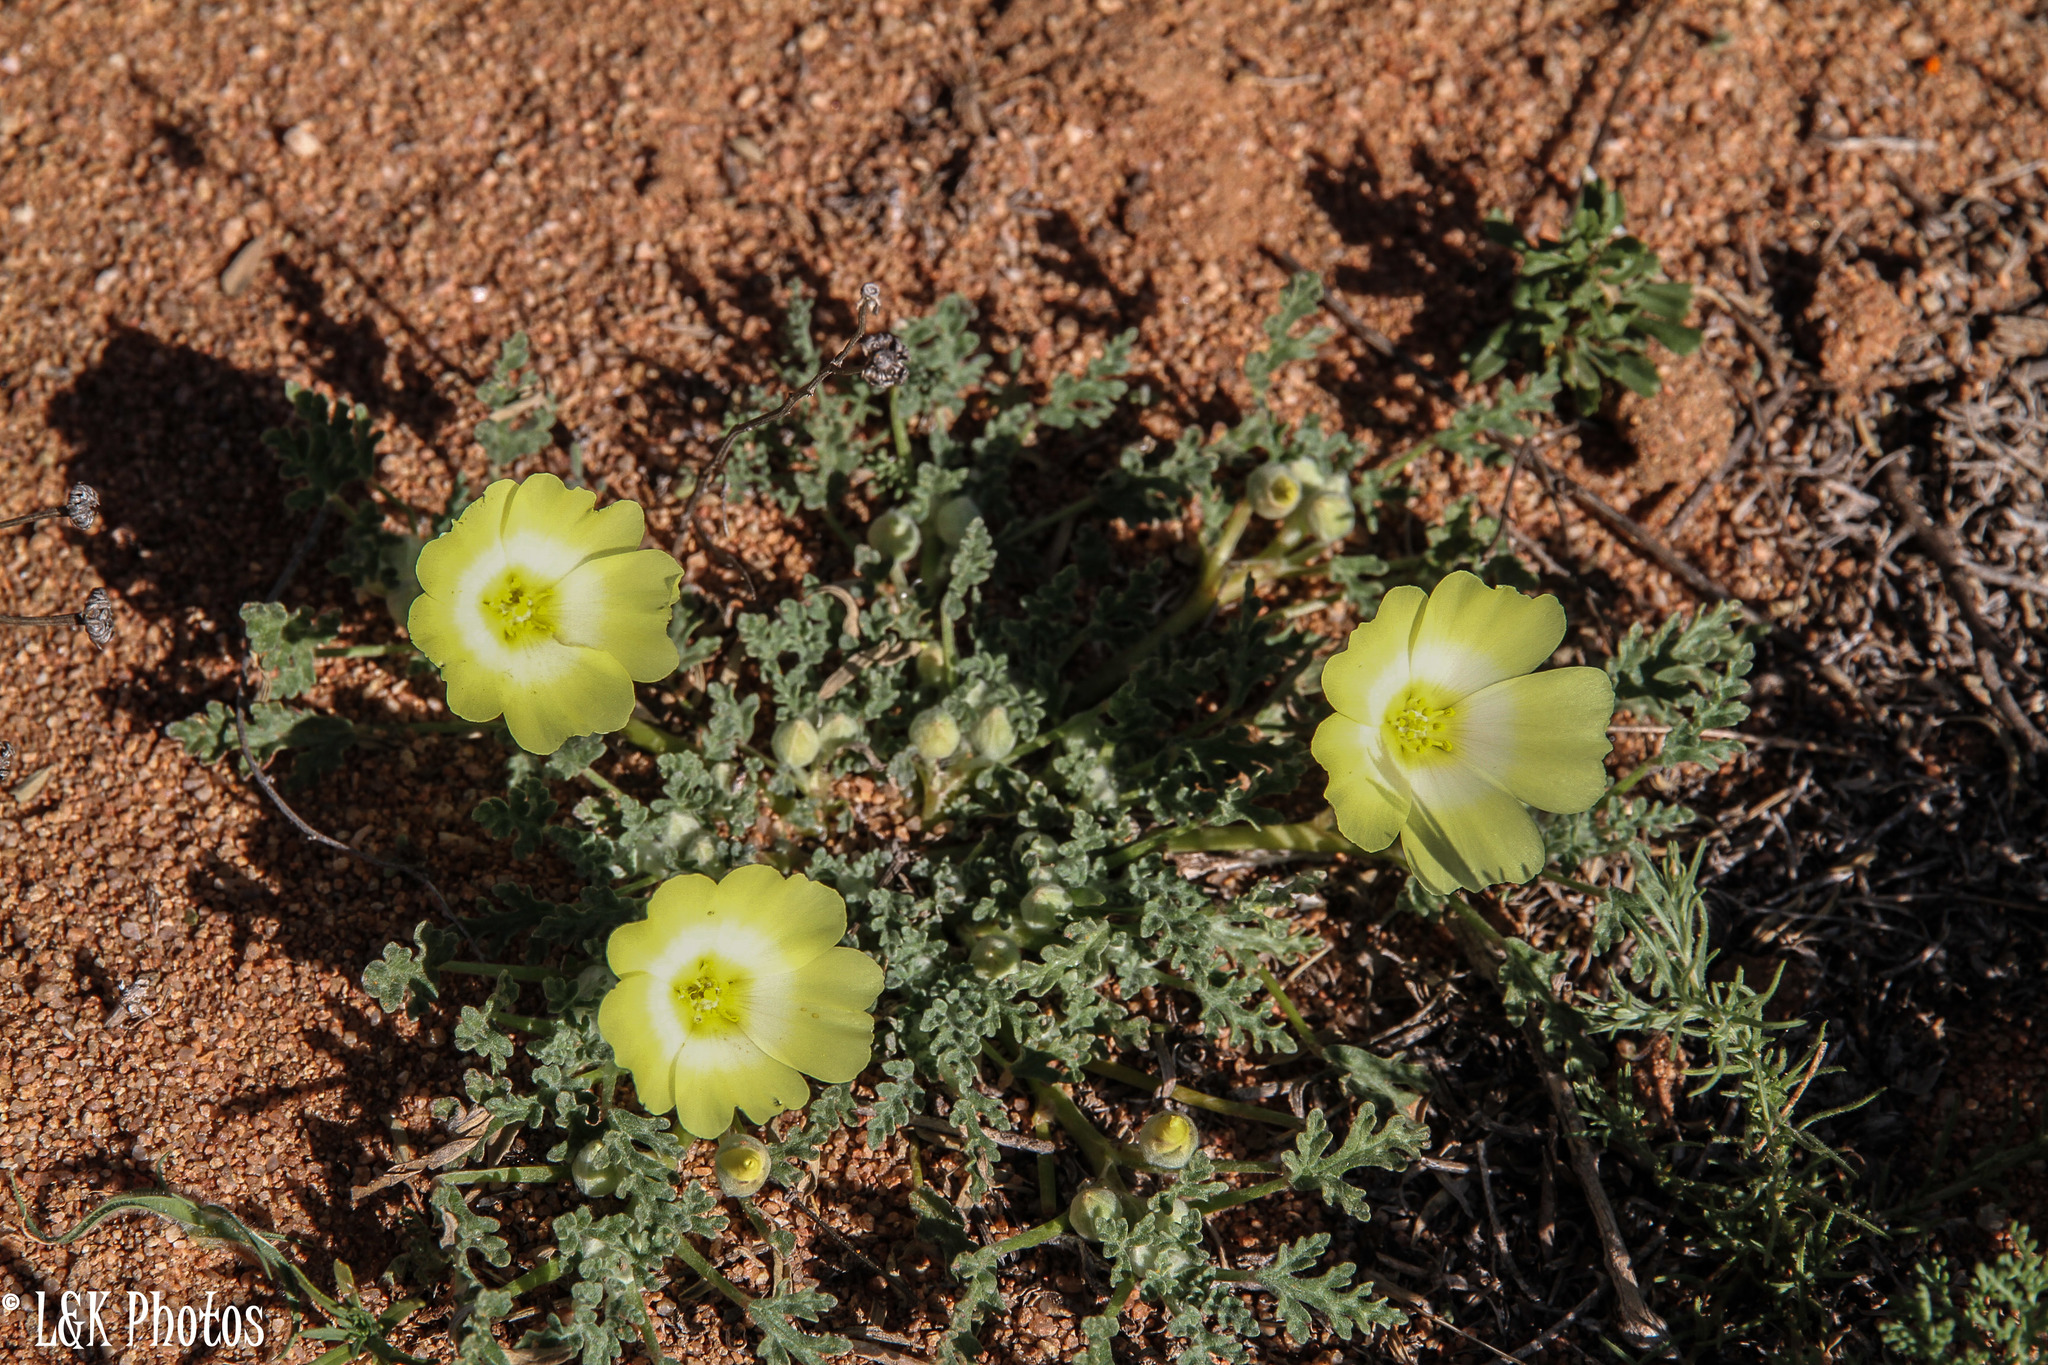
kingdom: Plantae
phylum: Tracheophyta
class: Magnoliopsida
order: Malvales
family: Neuradaceae
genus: Grielum
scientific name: Grielum humifusum
